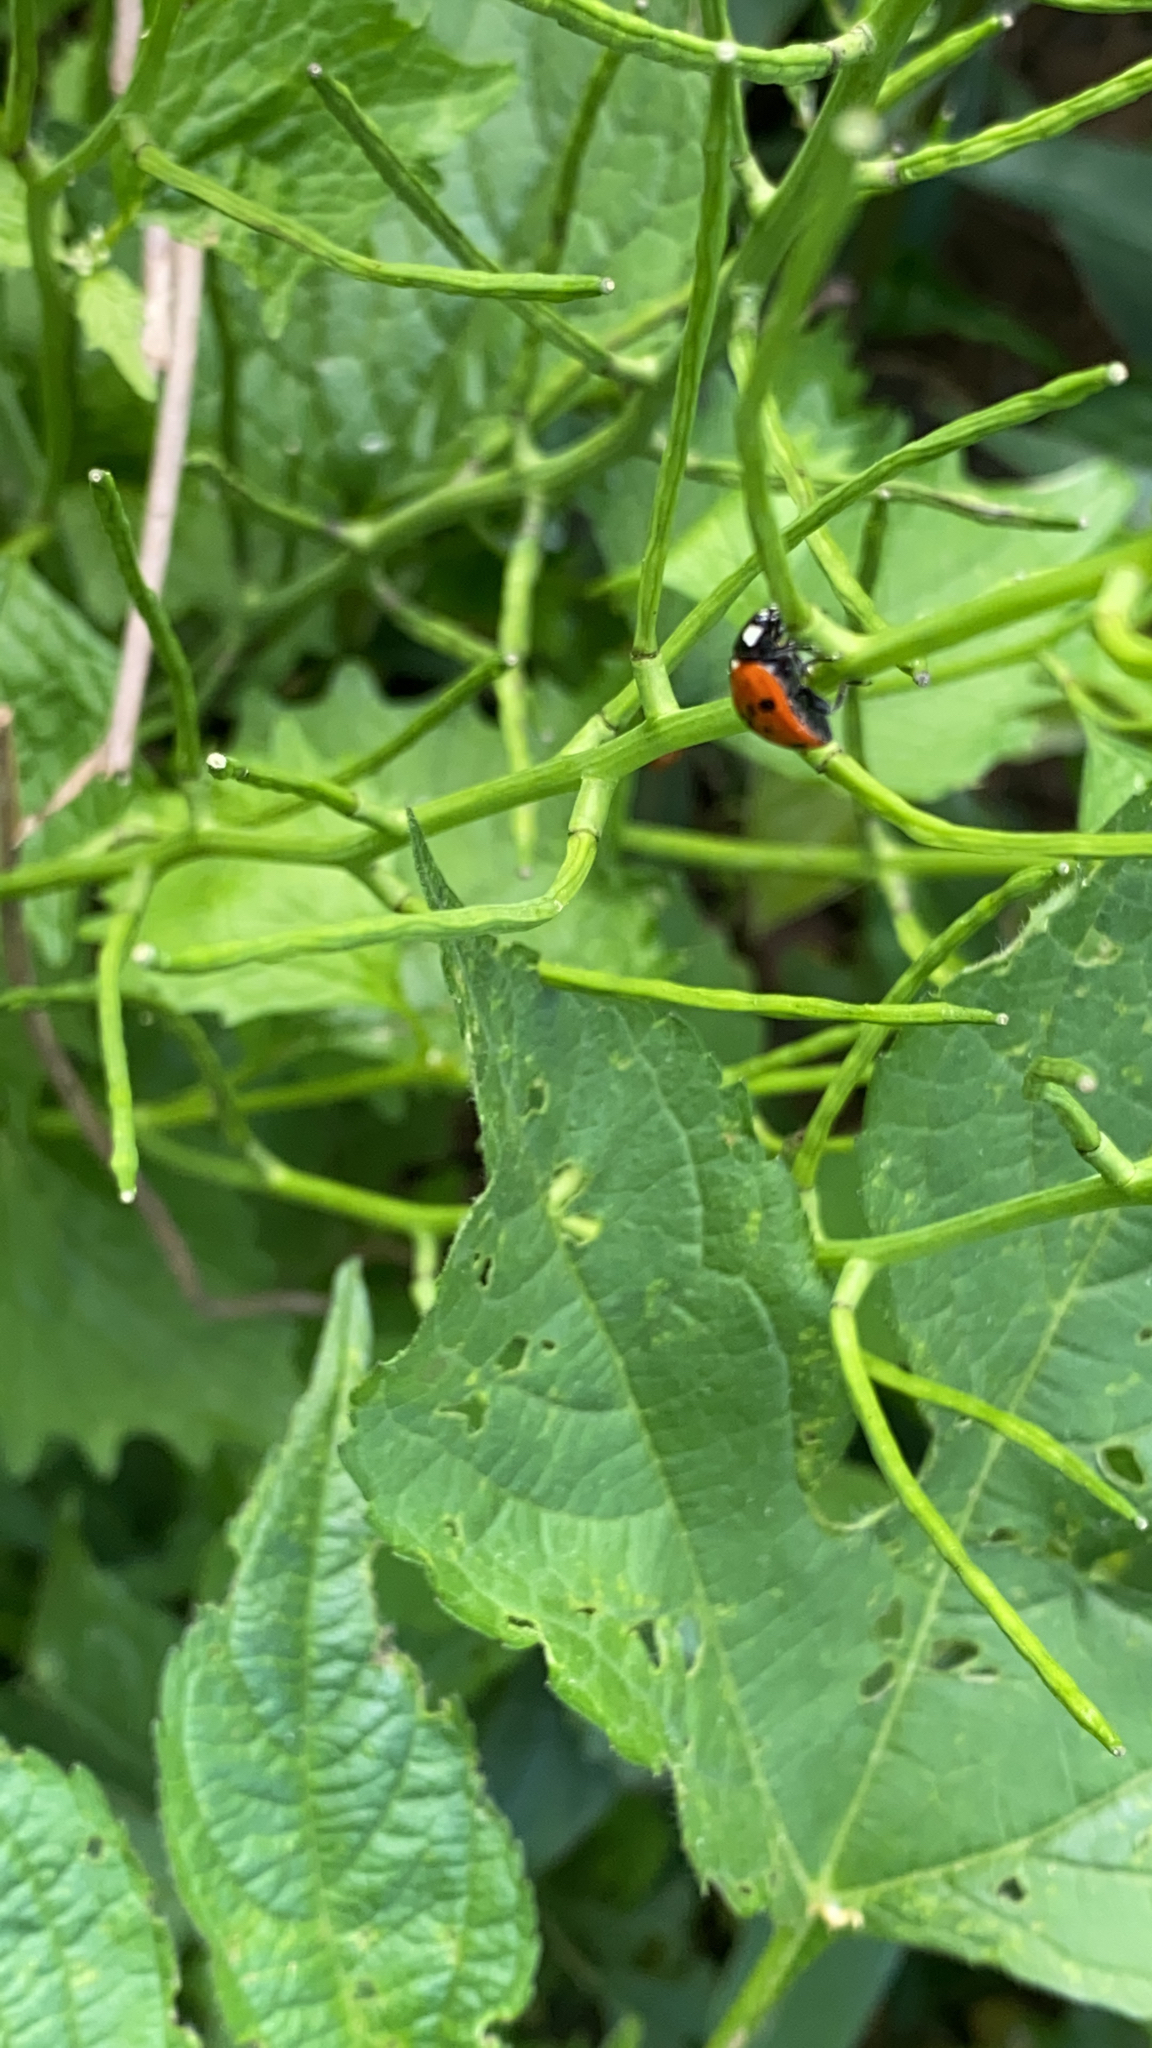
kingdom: Animalia
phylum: Arthropoda
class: Insecta
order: Coleoptera
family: Coccinellidae
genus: Coccinella
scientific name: Coccinella septempunctata
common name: Sevenspotted lady beetle
